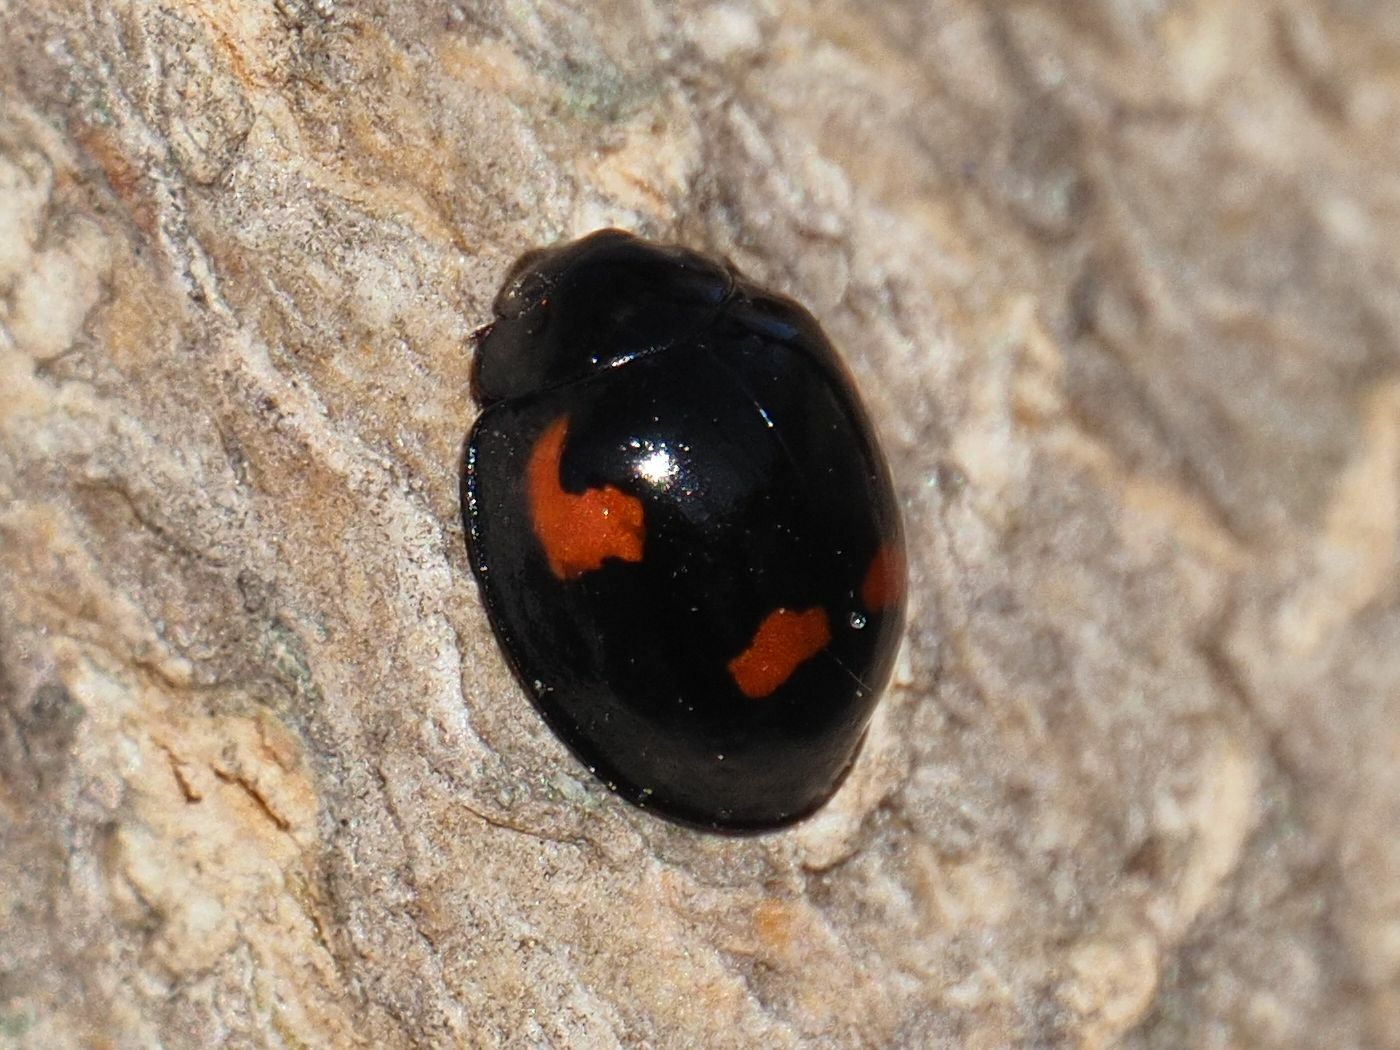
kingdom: Animalia
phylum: Arthropoda
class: Insecta
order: Coleoptera
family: Coccinellidae
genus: Brumus
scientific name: Brumus quadripustulatus
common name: Ladybird beetle
